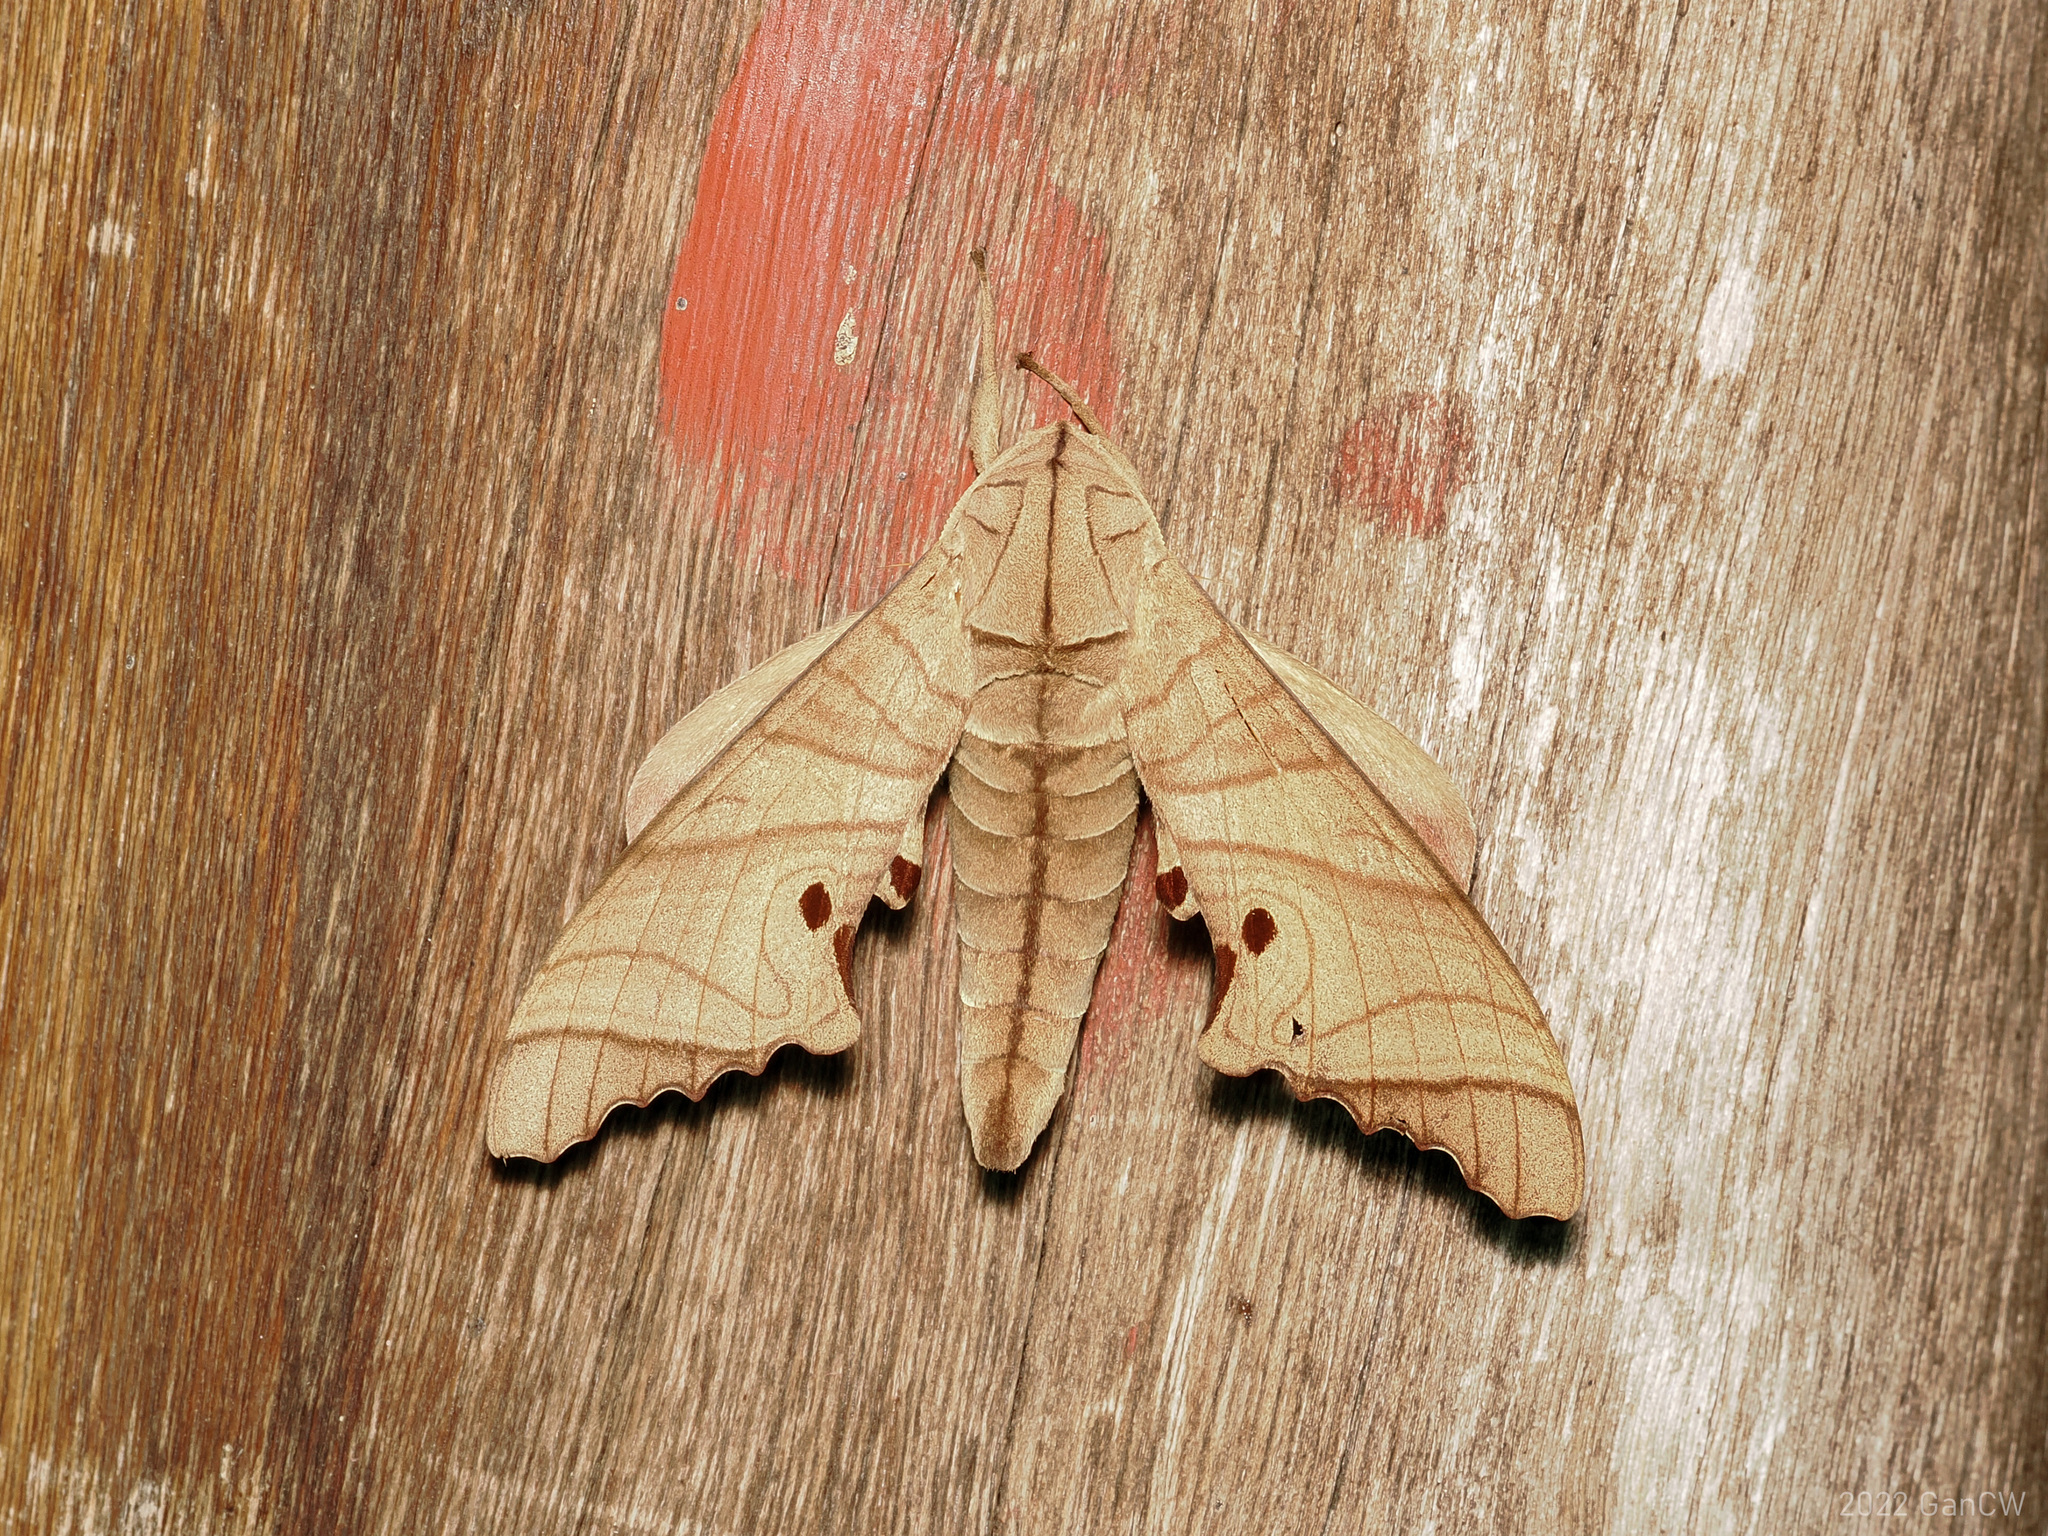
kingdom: Animalia
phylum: Arthropoda
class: Insecta
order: Lepidoptera
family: Sphingidae
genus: Marumba
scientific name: Marumba dyras
